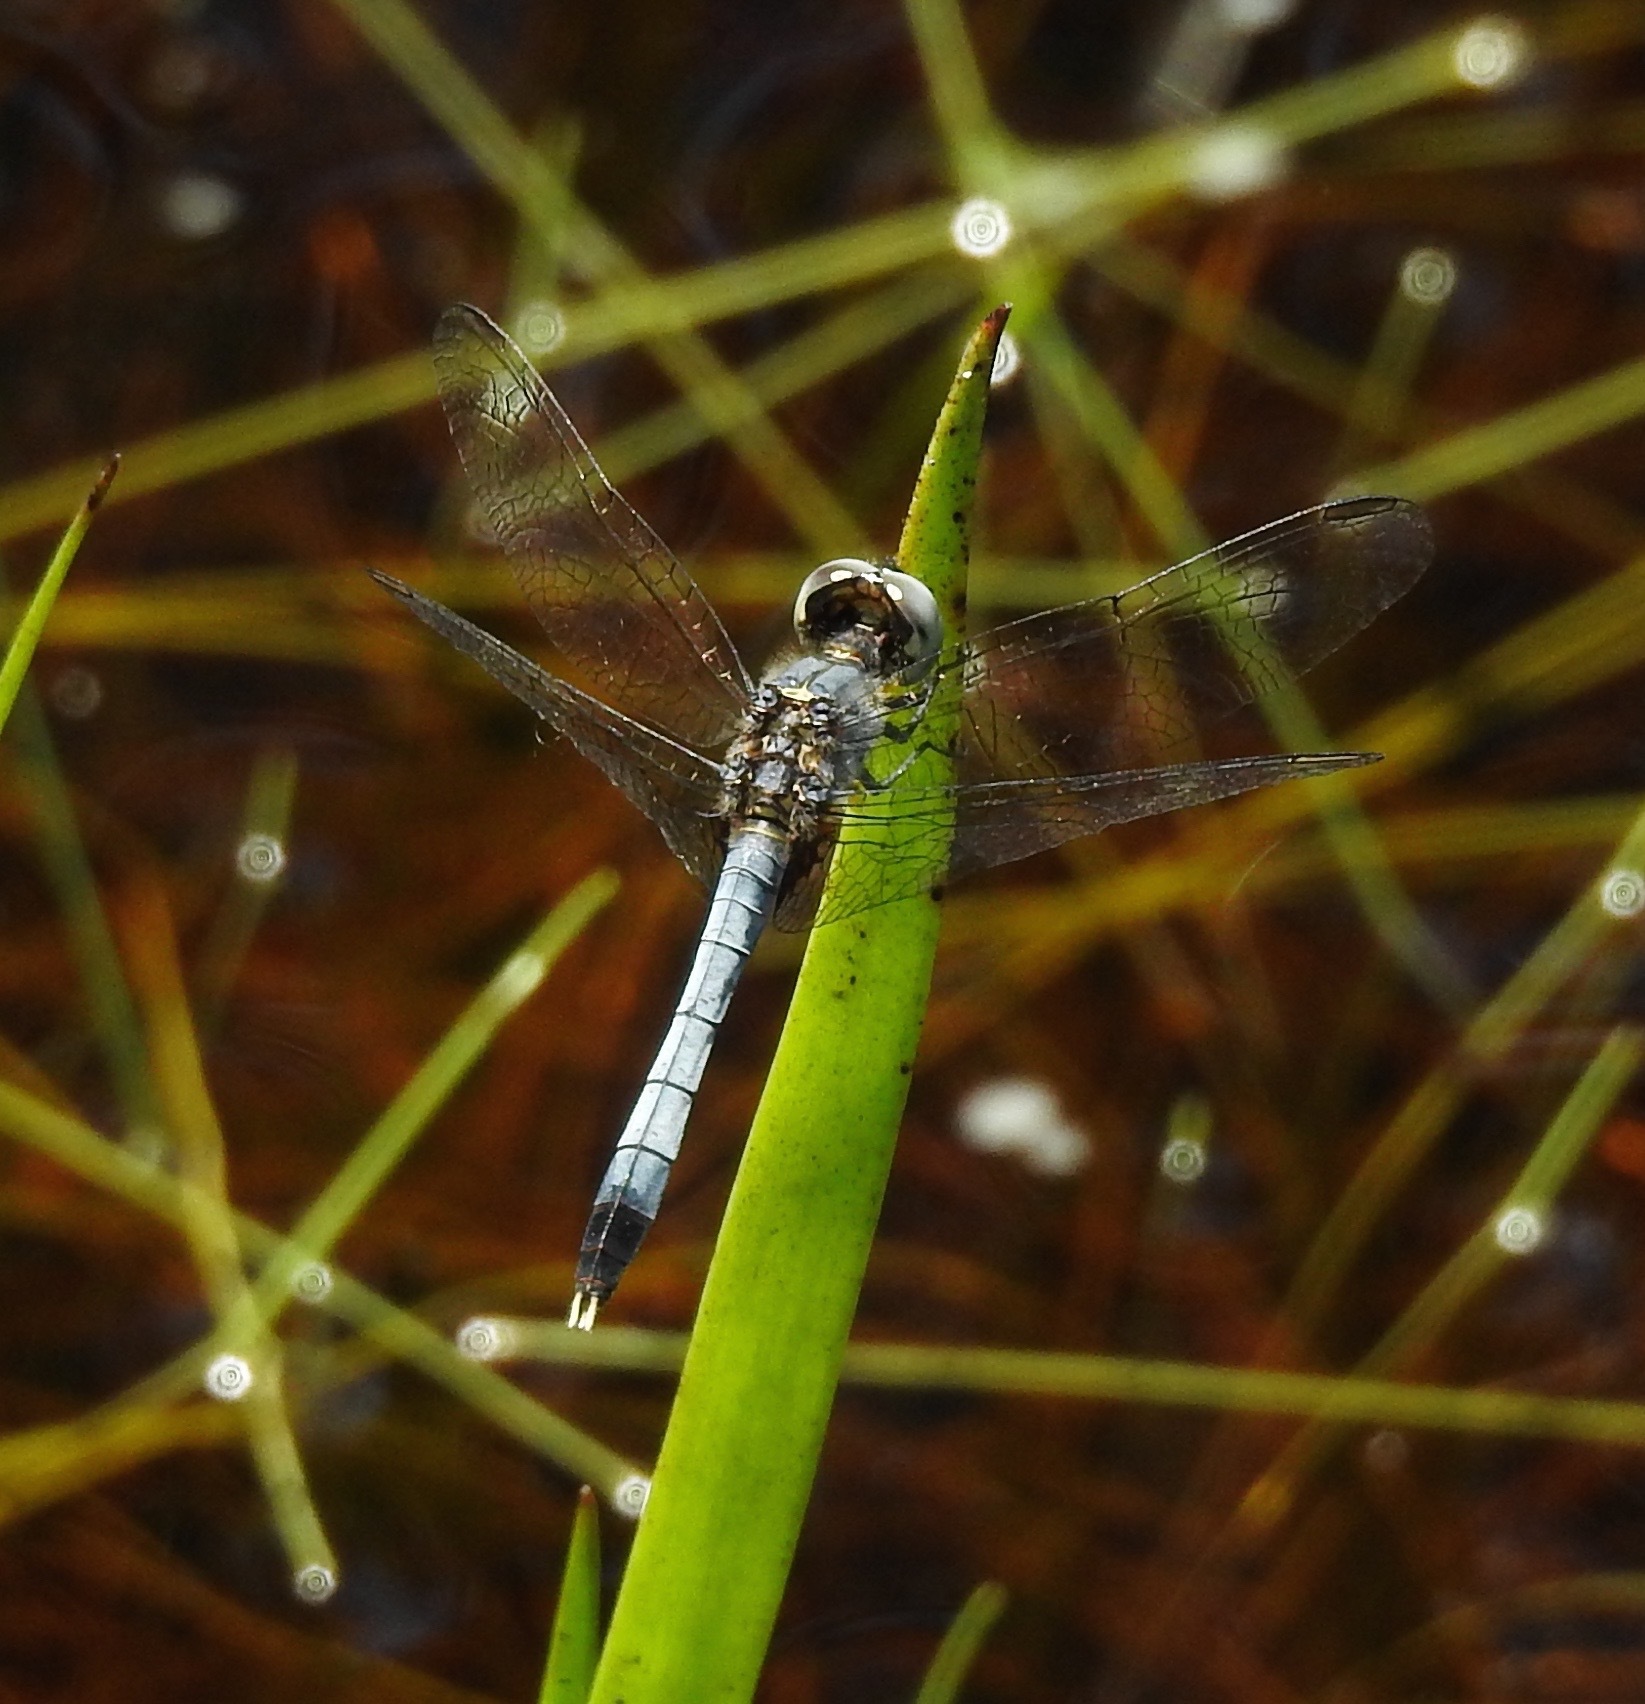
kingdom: Animalia
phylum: Arthropoda
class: Insecta
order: Odonata
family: Libellulidae
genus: Erythrodiplax
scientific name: Erythrodiplax minuscula
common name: Little blue dragonlet
